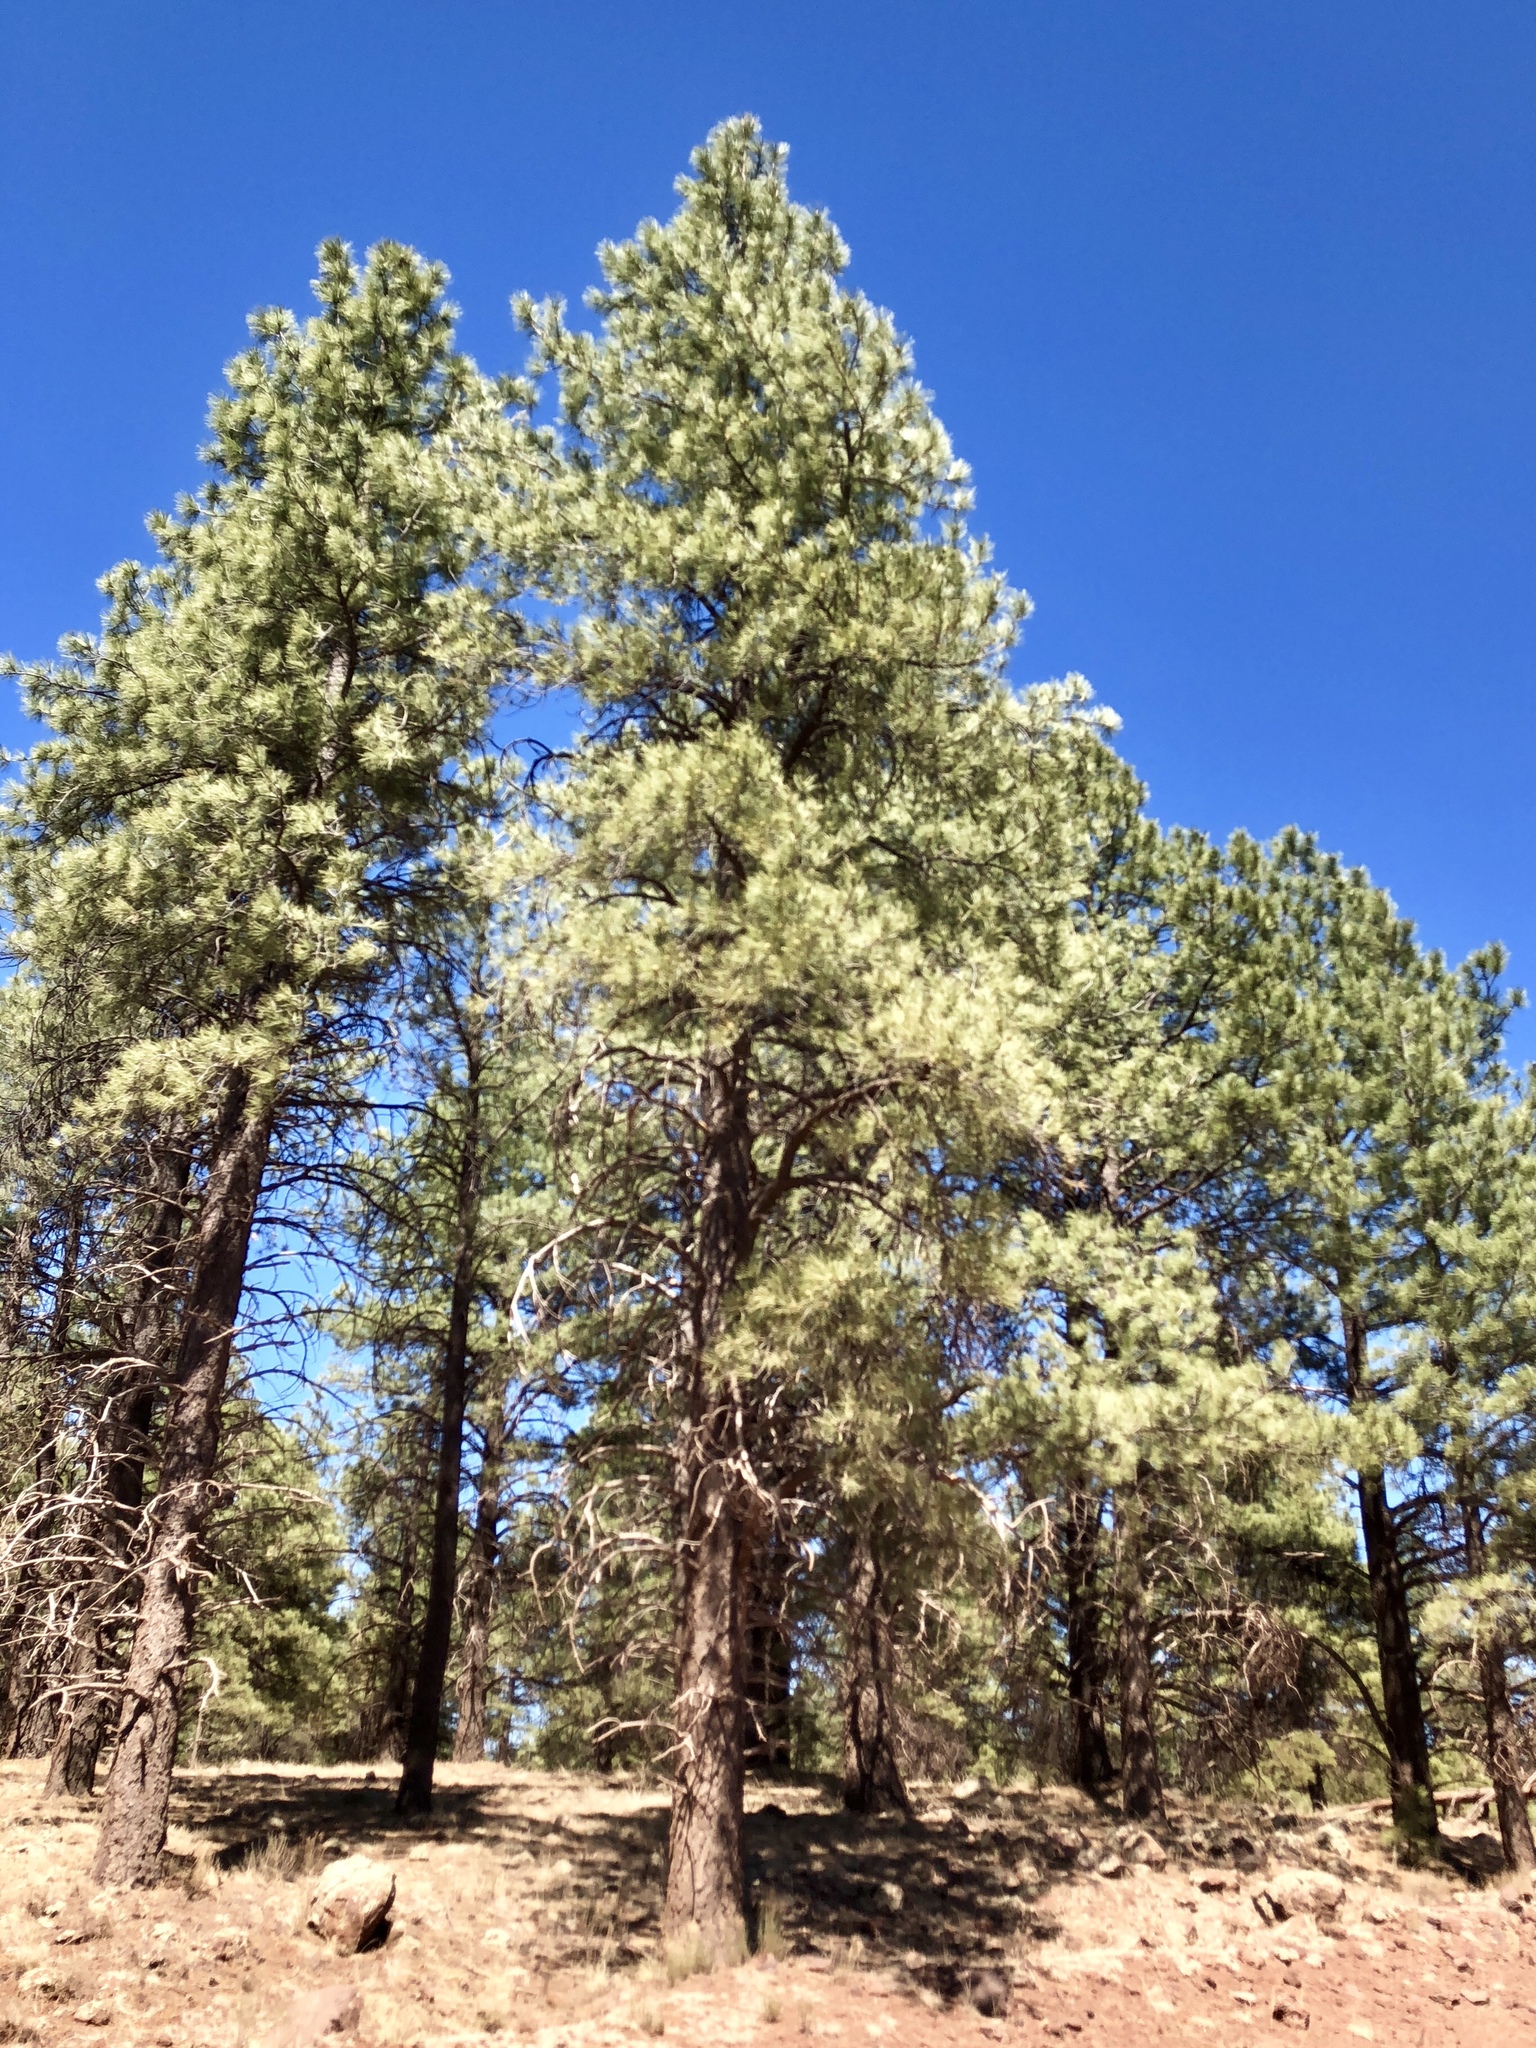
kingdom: Plantae
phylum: Tracheophyta
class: Pinopsida
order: Pinales
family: Pinaceae
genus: Pinus
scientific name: Pinus ponderosa
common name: Western yellow-pine
